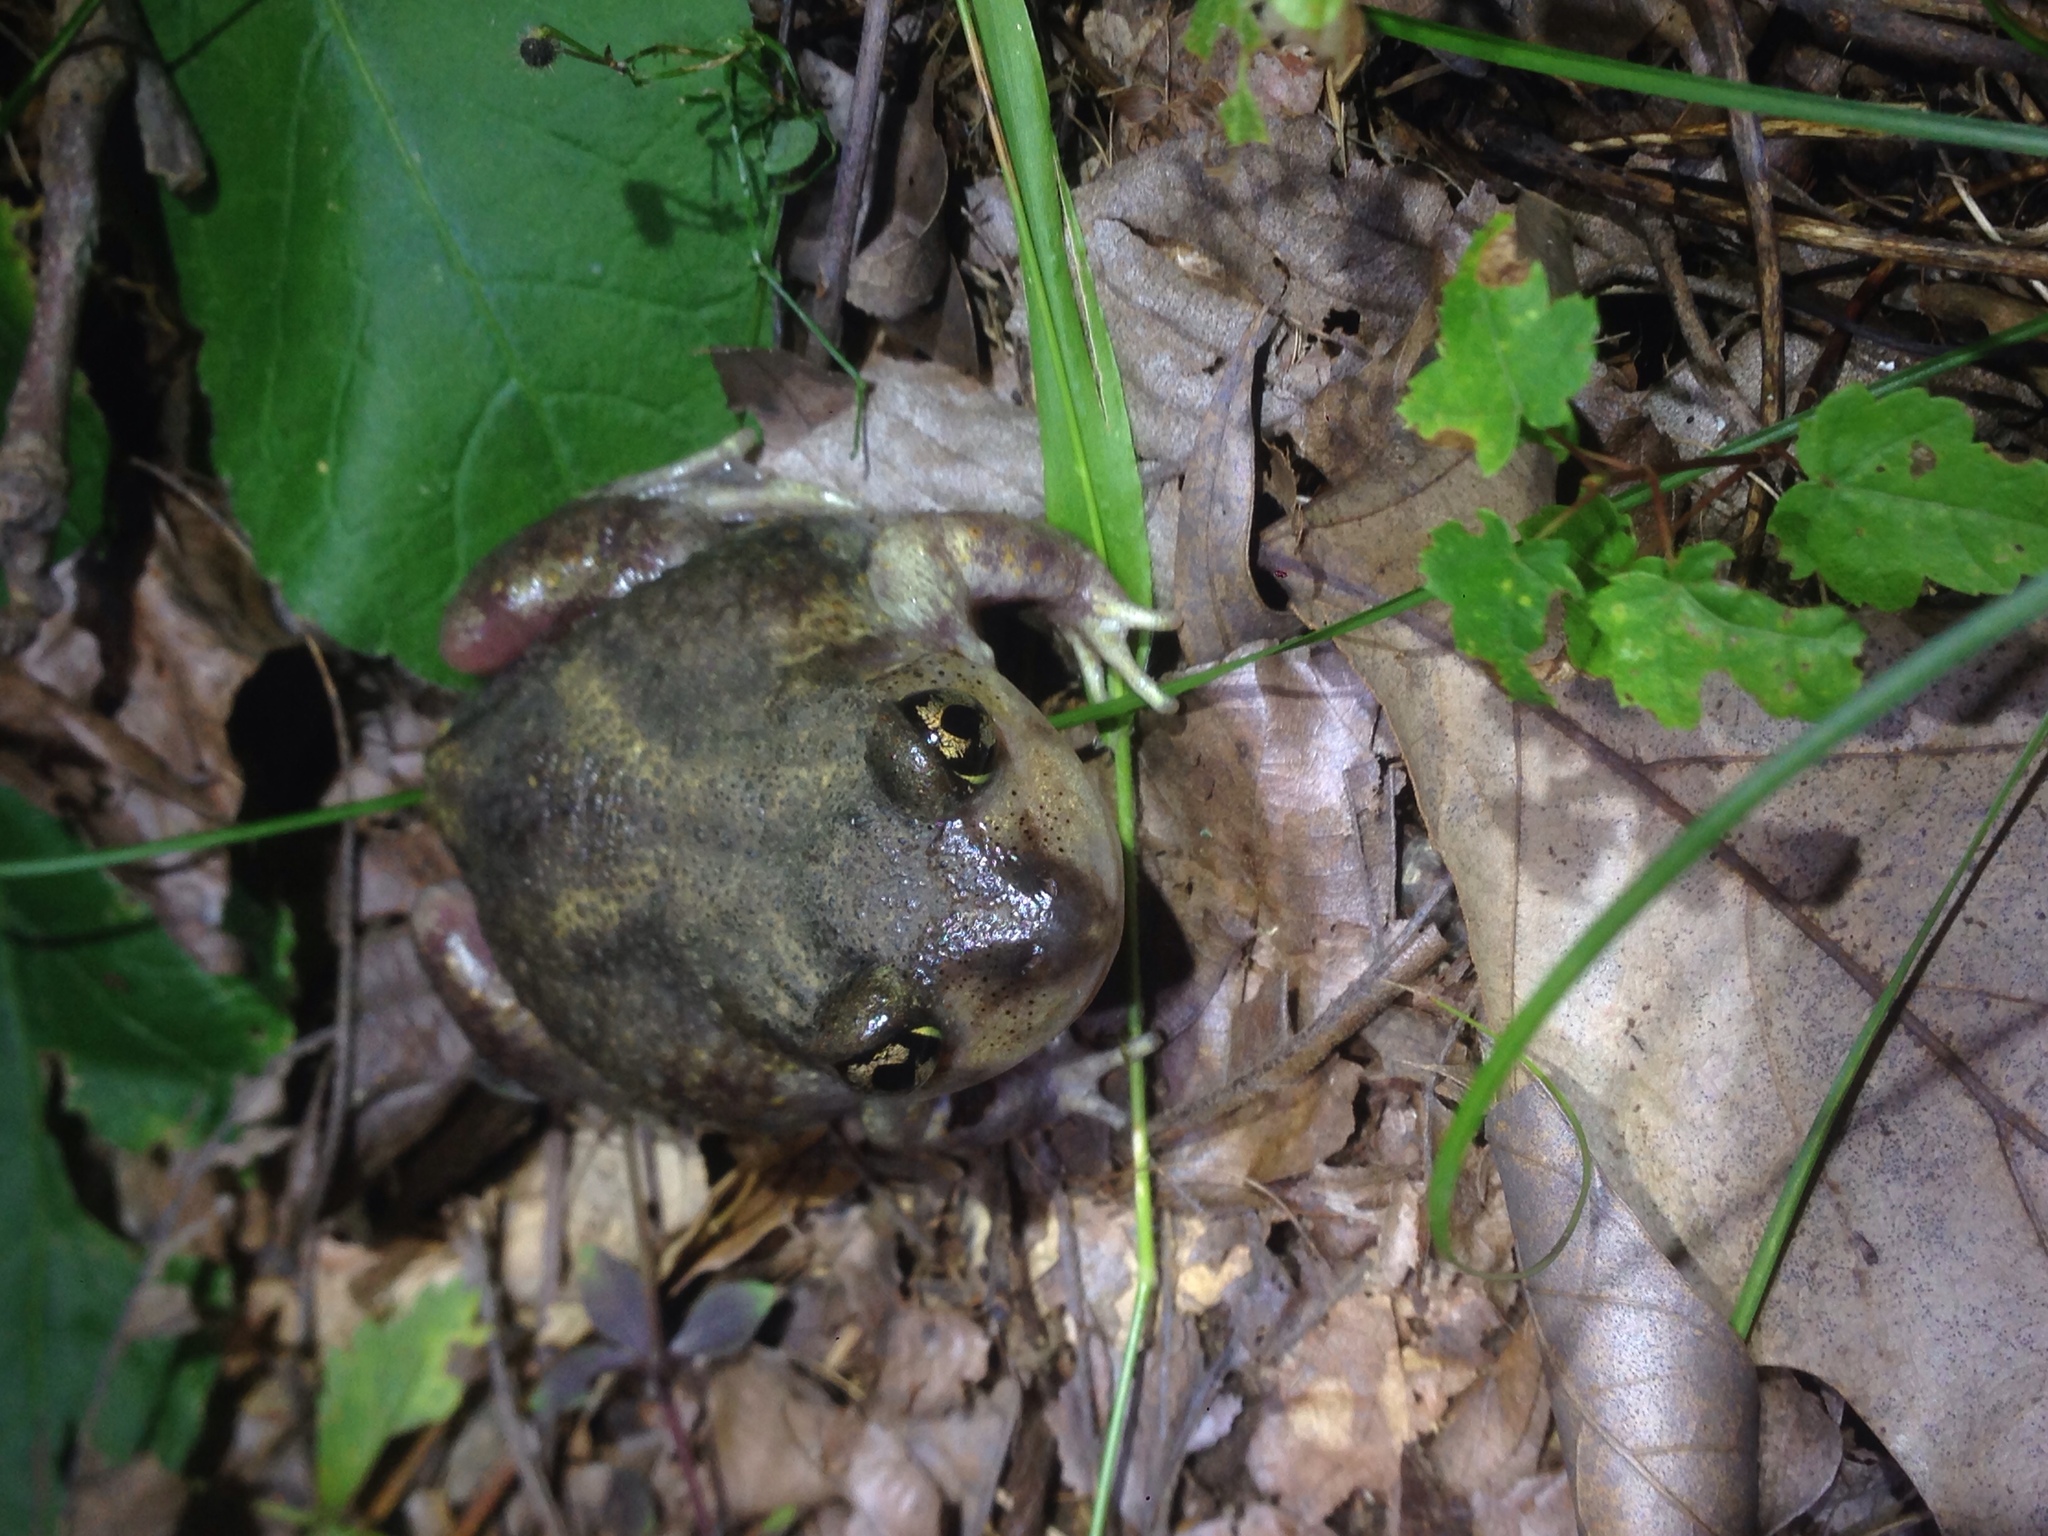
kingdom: Animalia
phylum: Chordata
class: Amphibia
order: Anura
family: Scaphiopodidae
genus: Scaphiopus
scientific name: Scaphiopus holbrookii
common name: Eastern spadefoot toad
